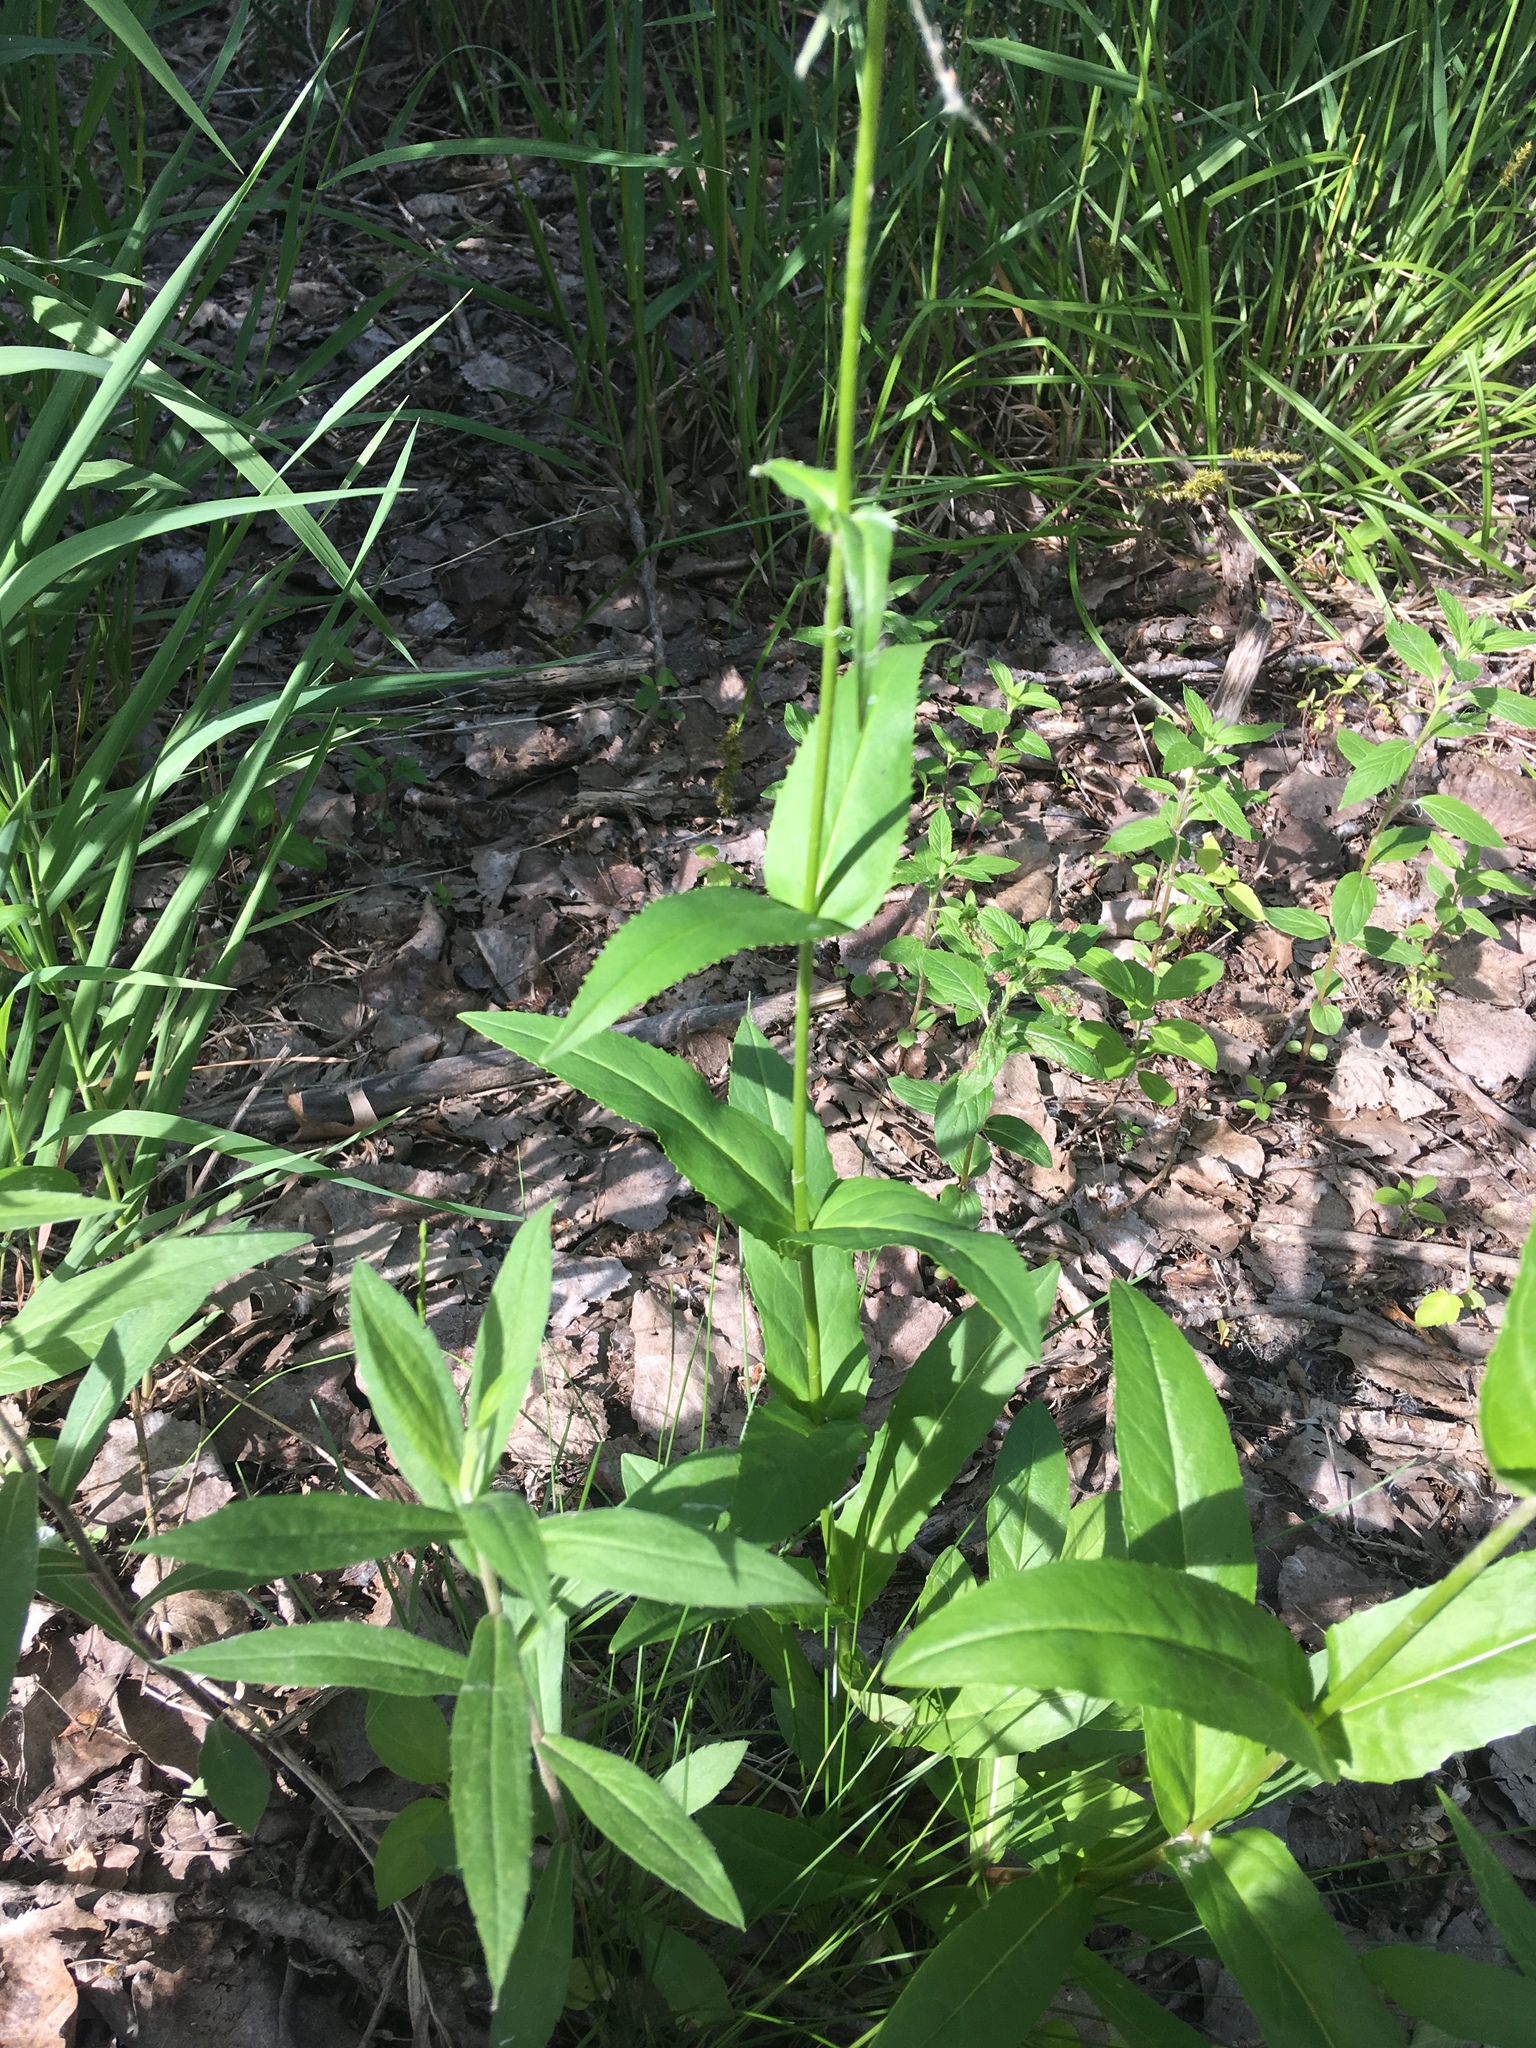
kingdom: Plantae
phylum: Tracheophyta
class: Magnoliopsida
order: Lamiales
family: Plantaginaceae
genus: Penstemon
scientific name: Penstemon digitalis
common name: Foxglove beardtongue
